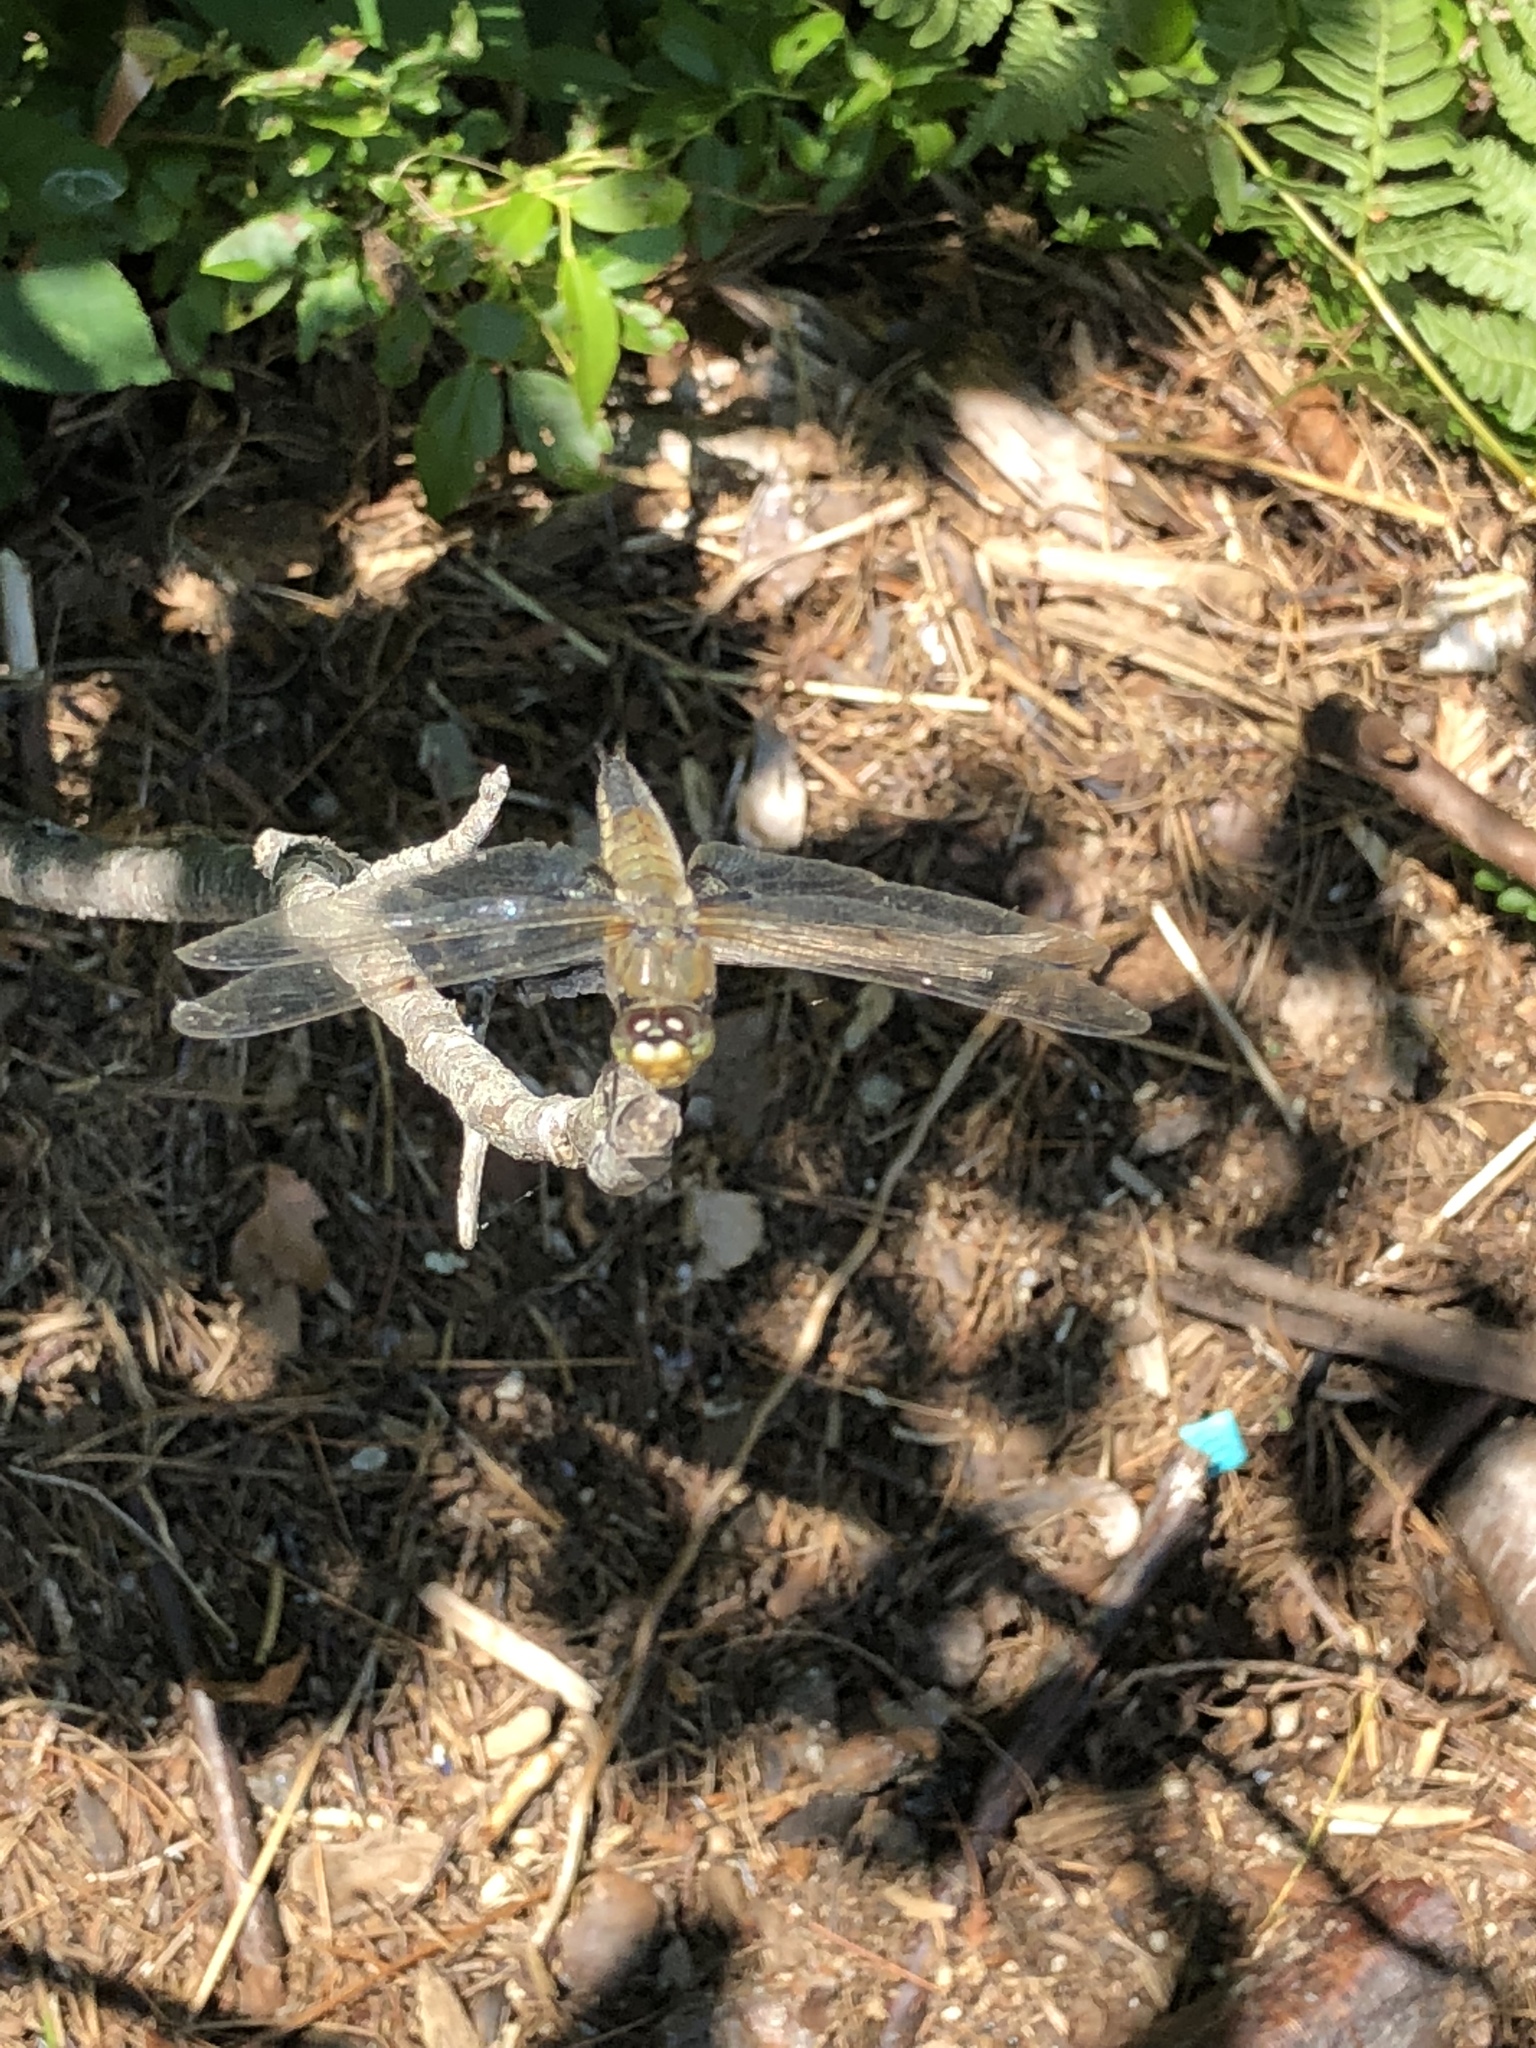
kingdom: Animalia
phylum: Arthropoda
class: Insecta
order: Odonata
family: Libellulidae
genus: Libellula
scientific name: Libellula quadrimaculata
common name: Four-spotted chaser
